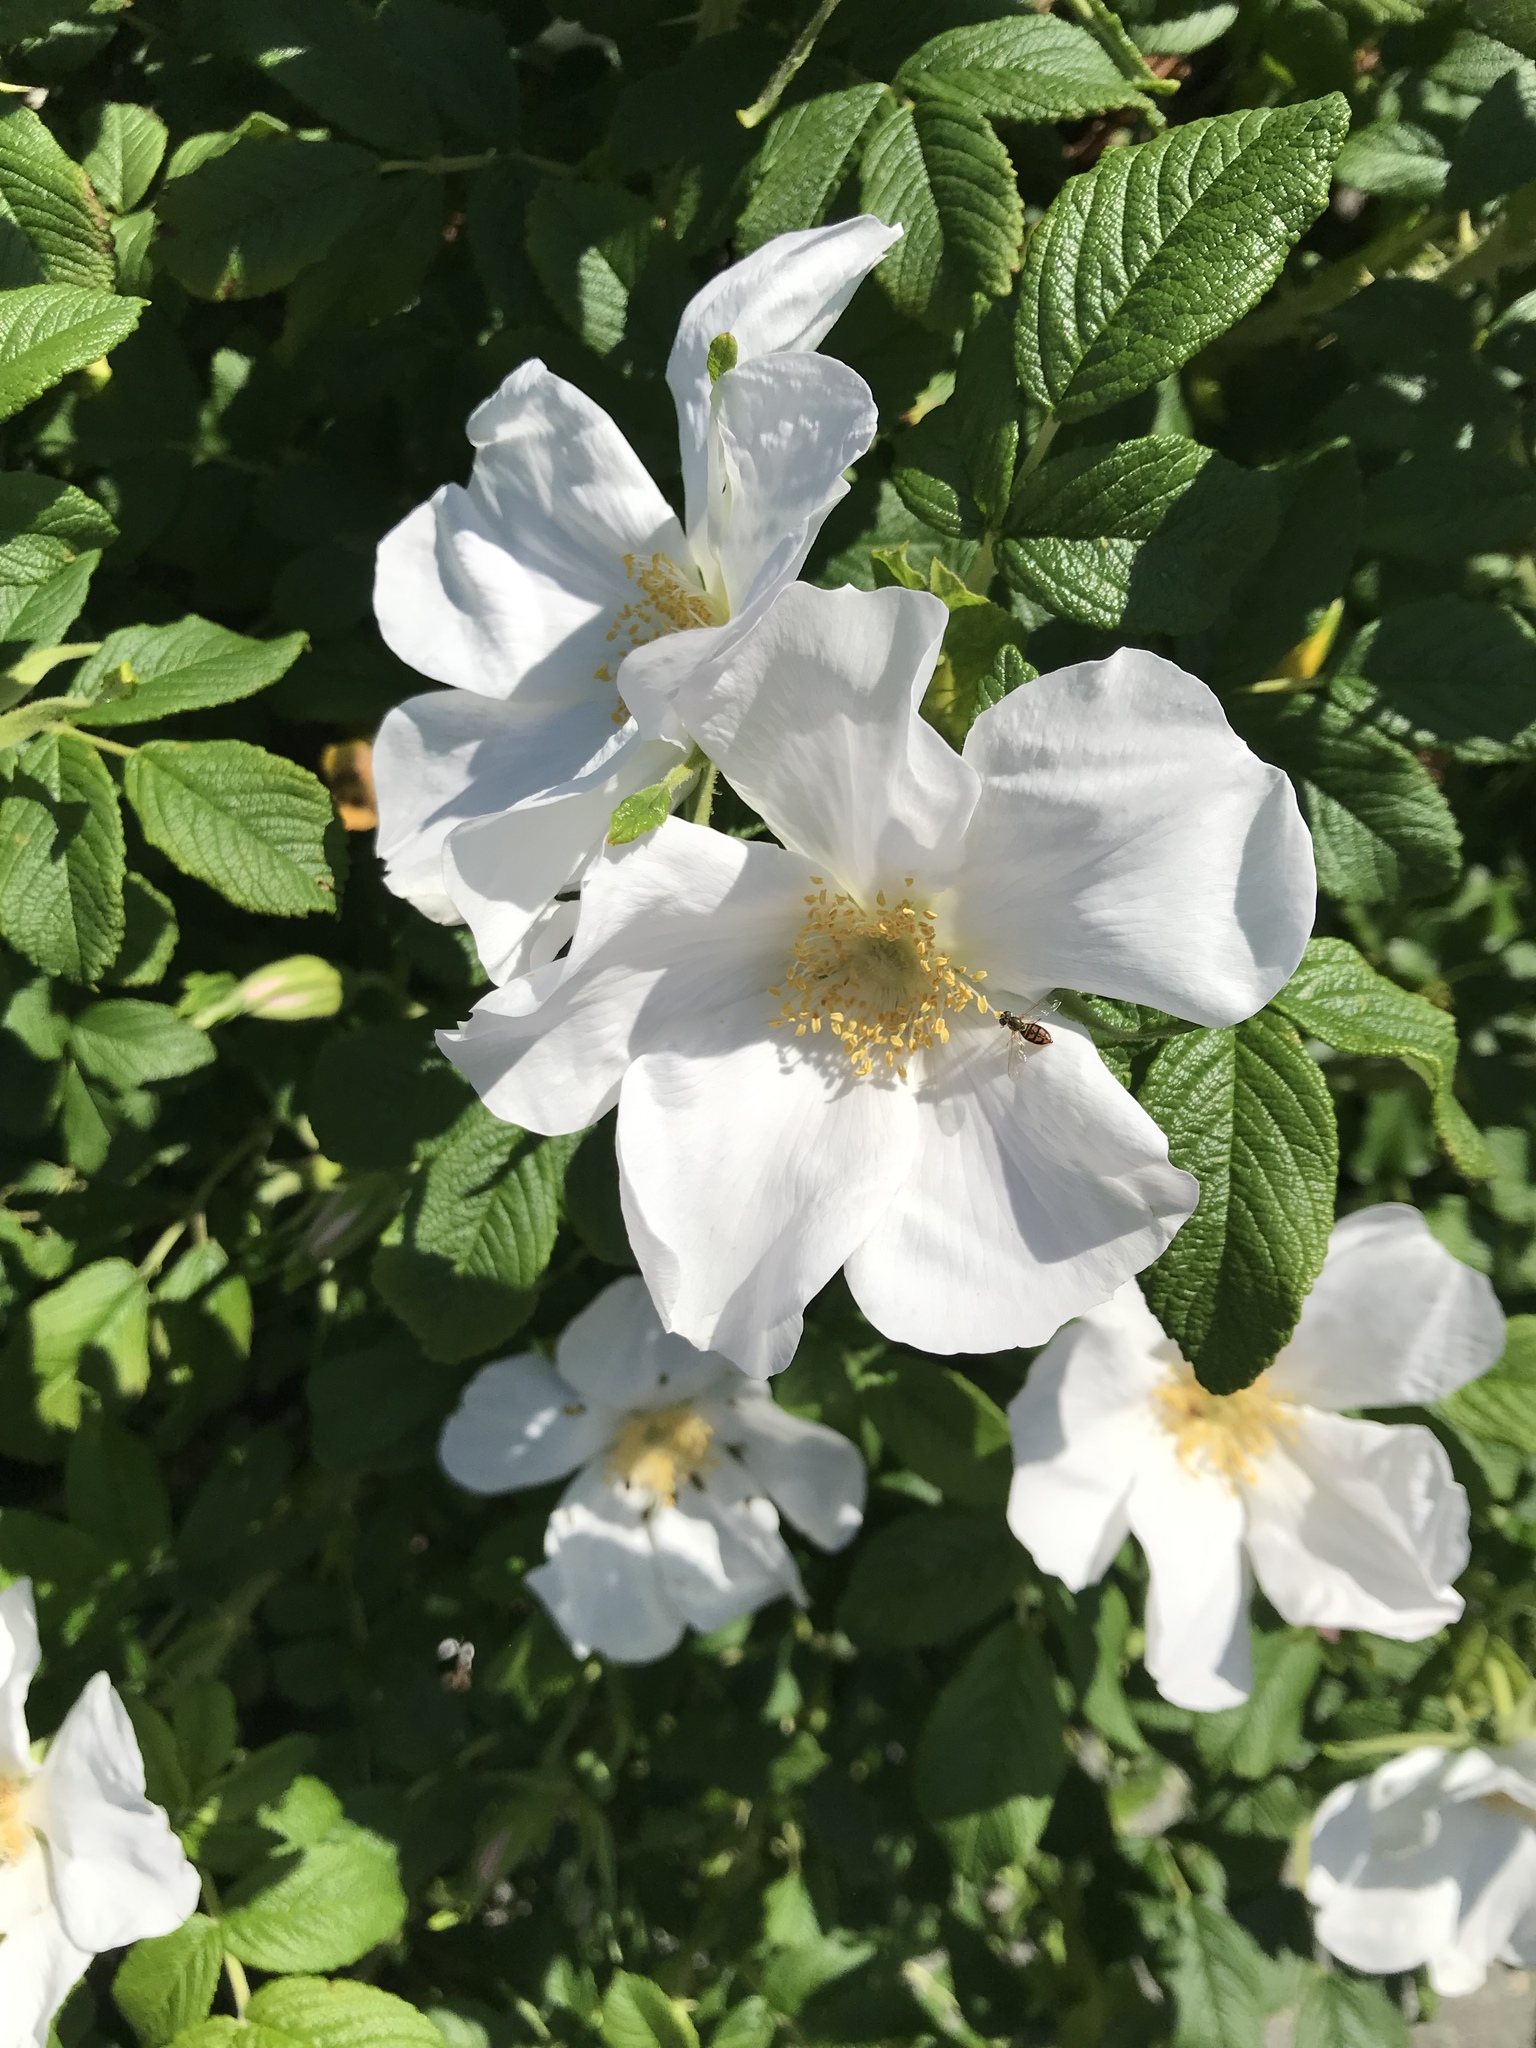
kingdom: Plantae
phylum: Tracheophyta
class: Magnoliopsida
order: Rosales
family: Rosaceae
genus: Rosa
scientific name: Rosa multiflora
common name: Multiflora rose
